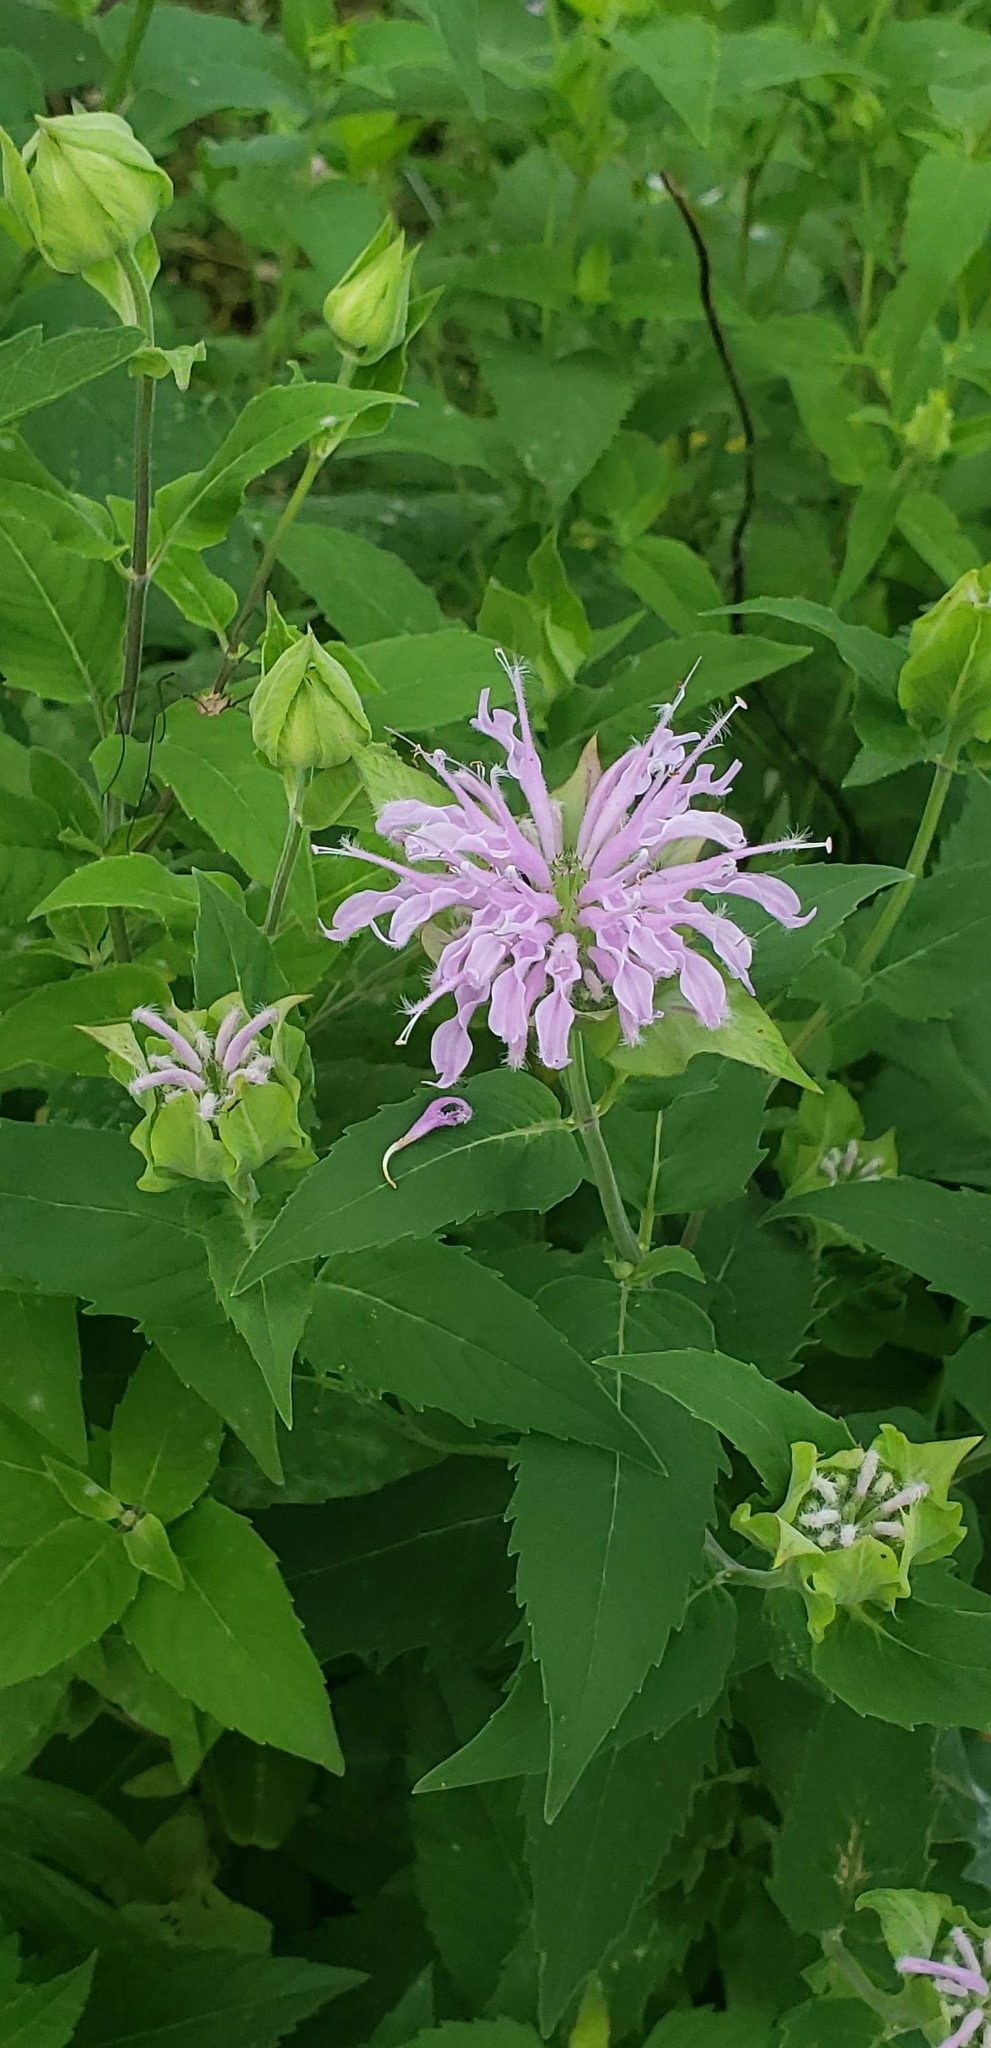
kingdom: Plantae
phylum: Tracheophyta
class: Magnoliopsida
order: Lamiales
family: Lamiaceae
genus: Monarda
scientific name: Monarda fistulosa
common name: Purple beebalm
